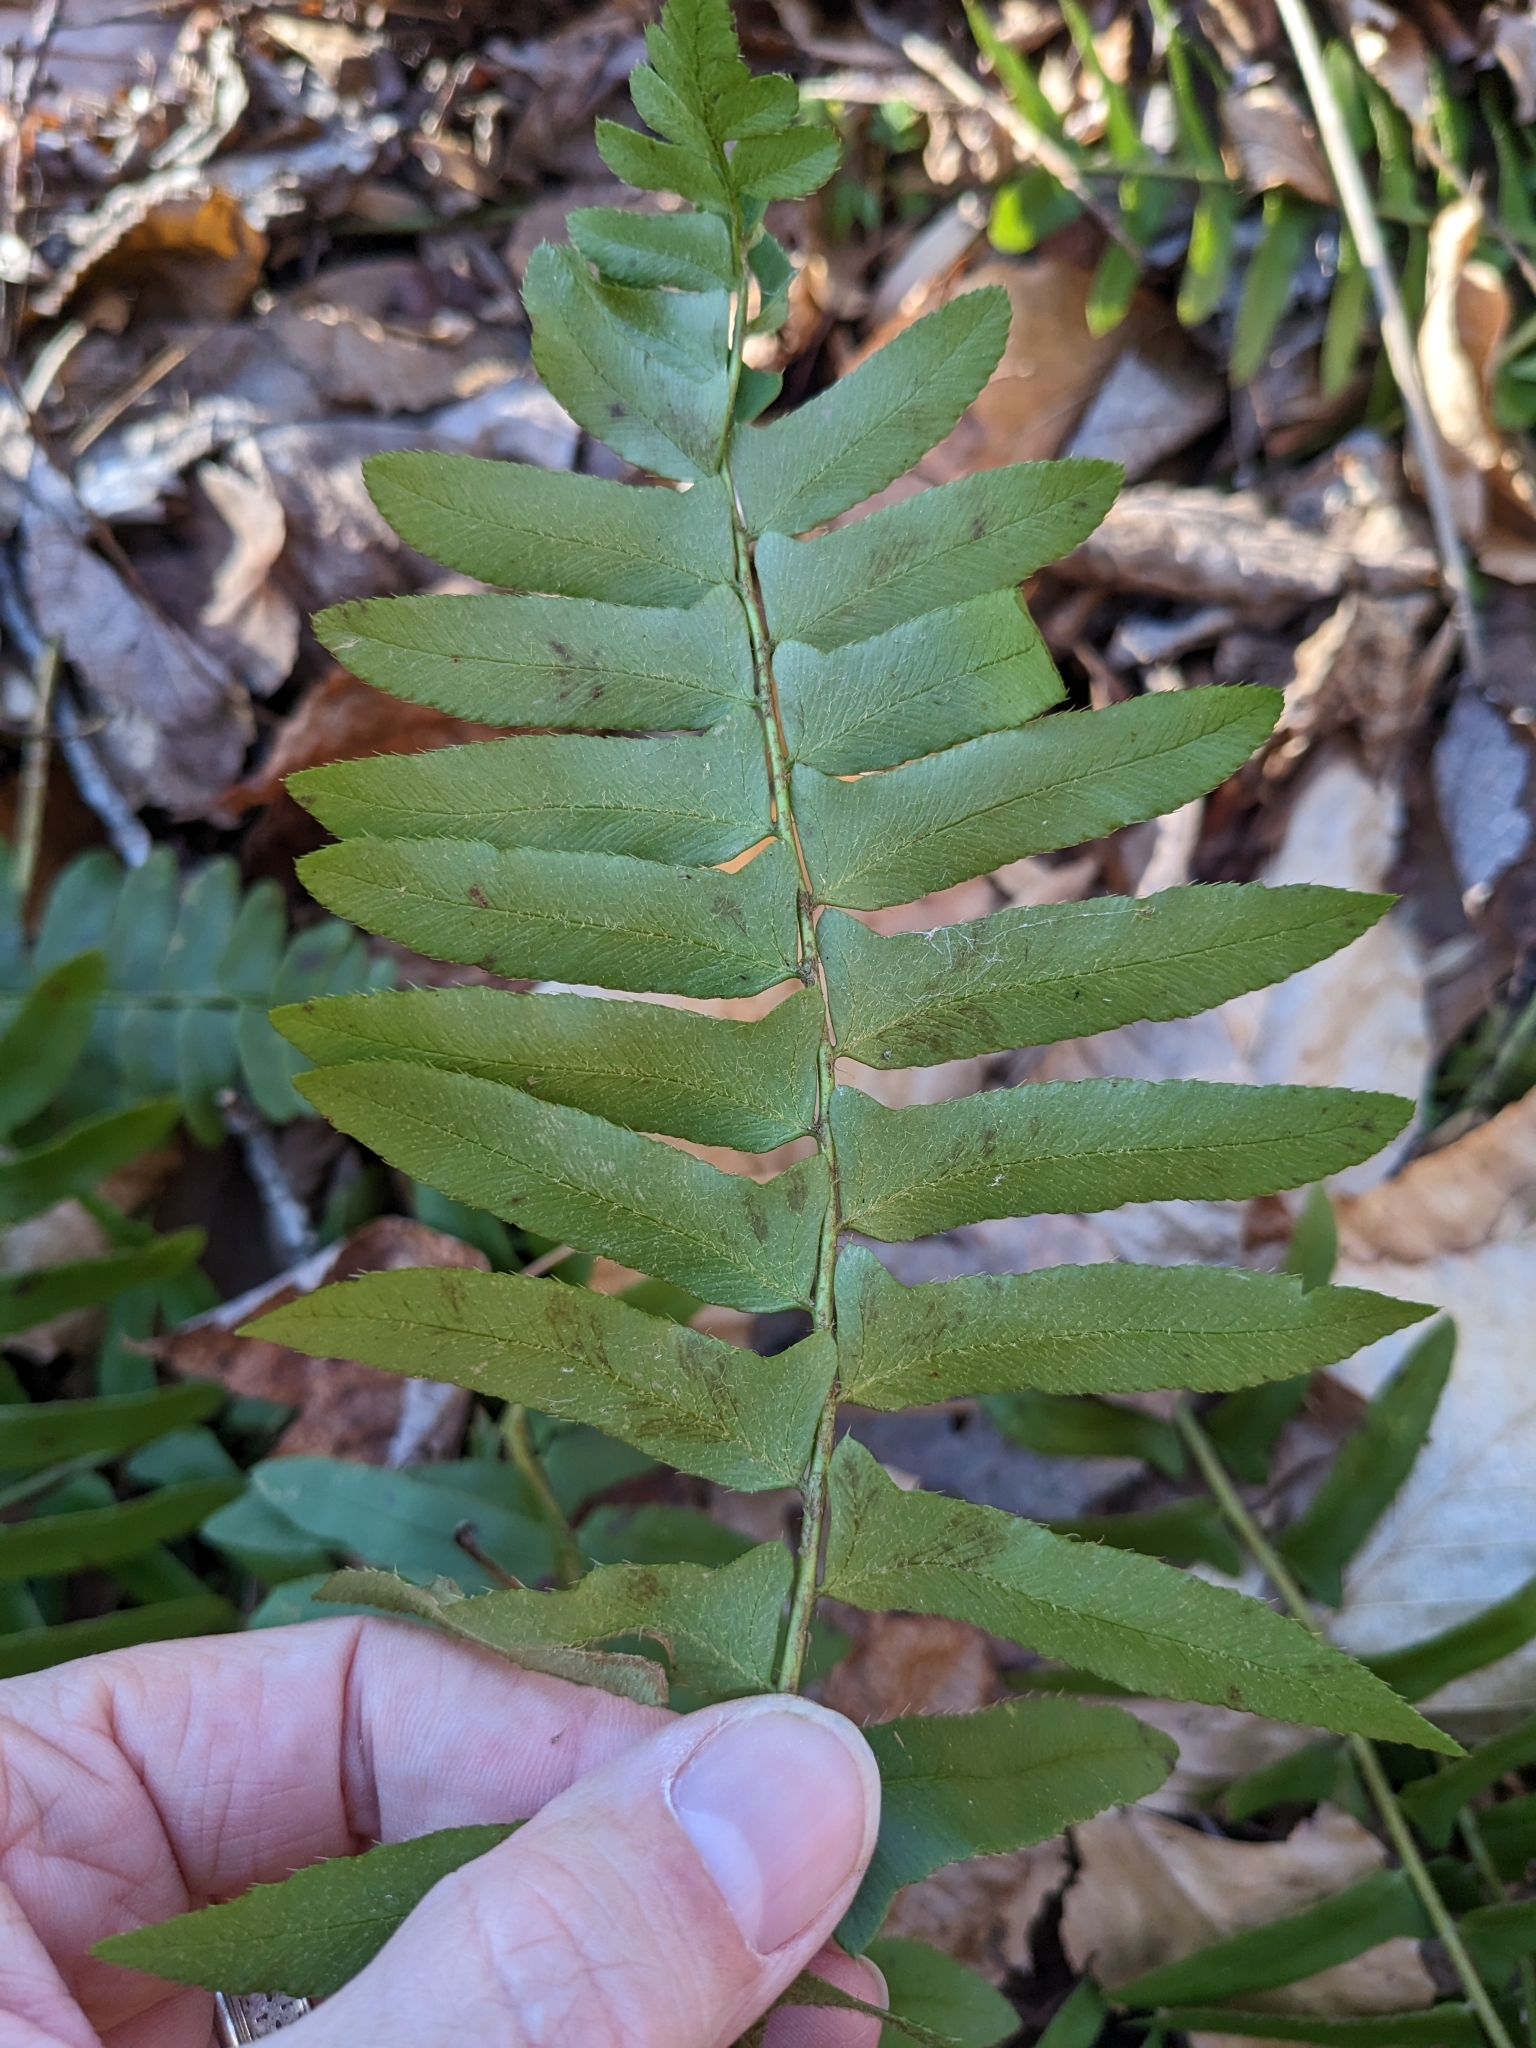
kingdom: Plantae
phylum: Tracheophyta
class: Polypodiopsida
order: Polypodiales
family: Dryopteridaceae
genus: Polystichum
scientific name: Polystichum acrostichoides
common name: Christmas fern
